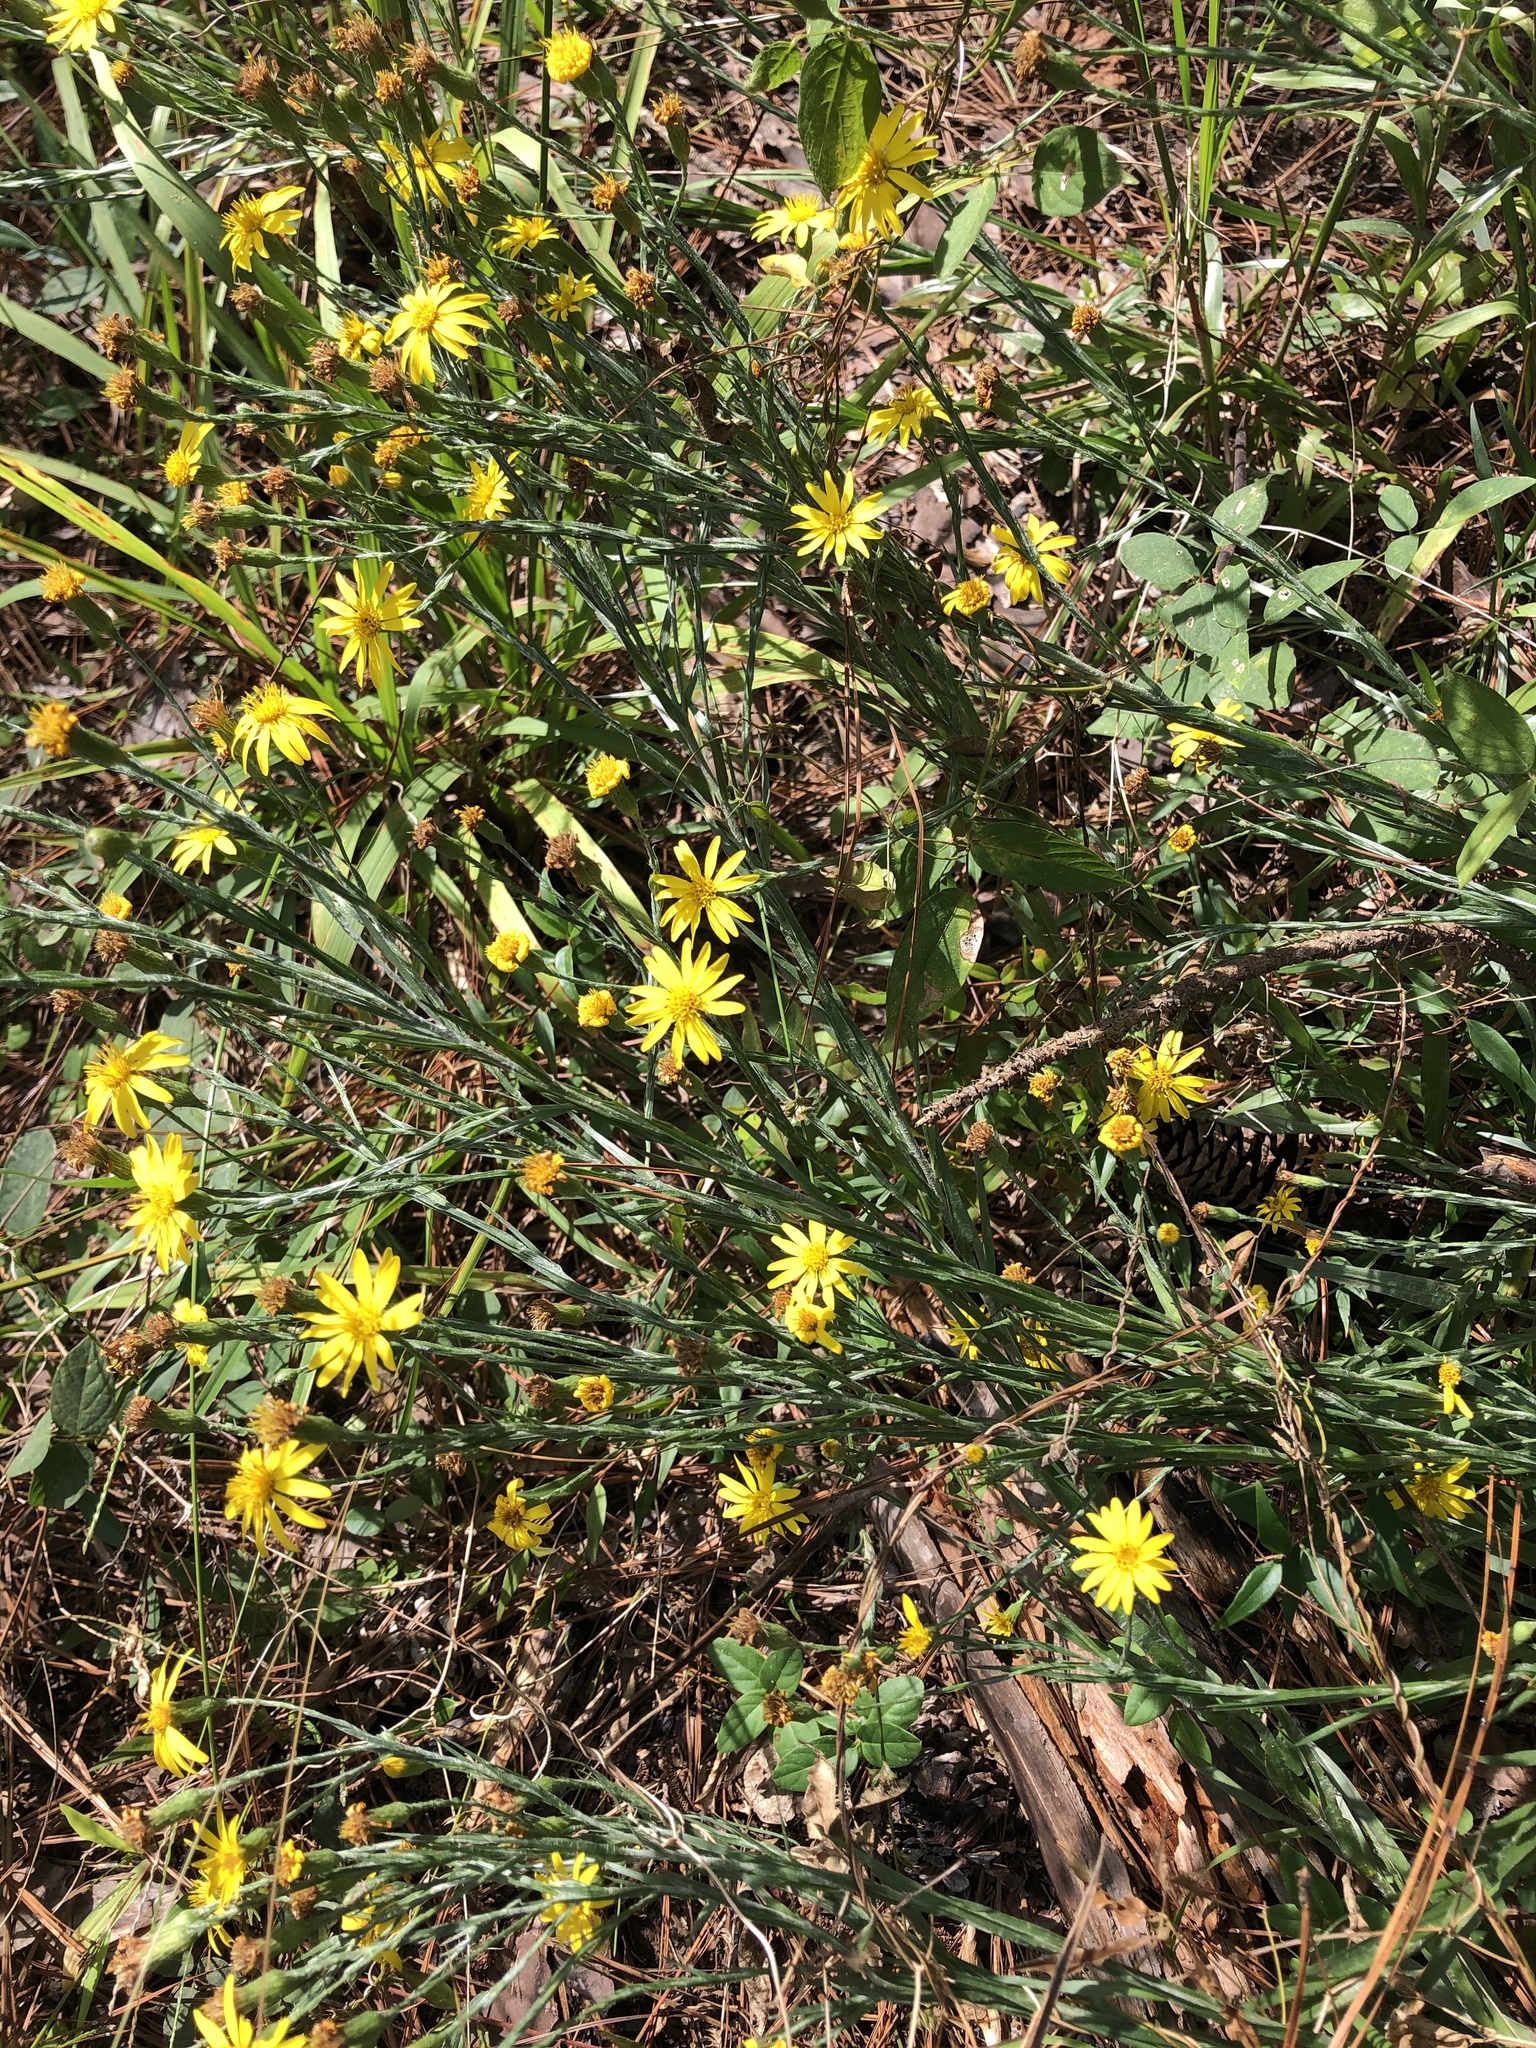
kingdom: Plantae
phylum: Tracheophyta
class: Magnoliopsida
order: Asterales
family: Asteraceae
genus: Pityopsis
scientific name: Pityopsis graminifolia
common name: Grass-leaf golden-aster
